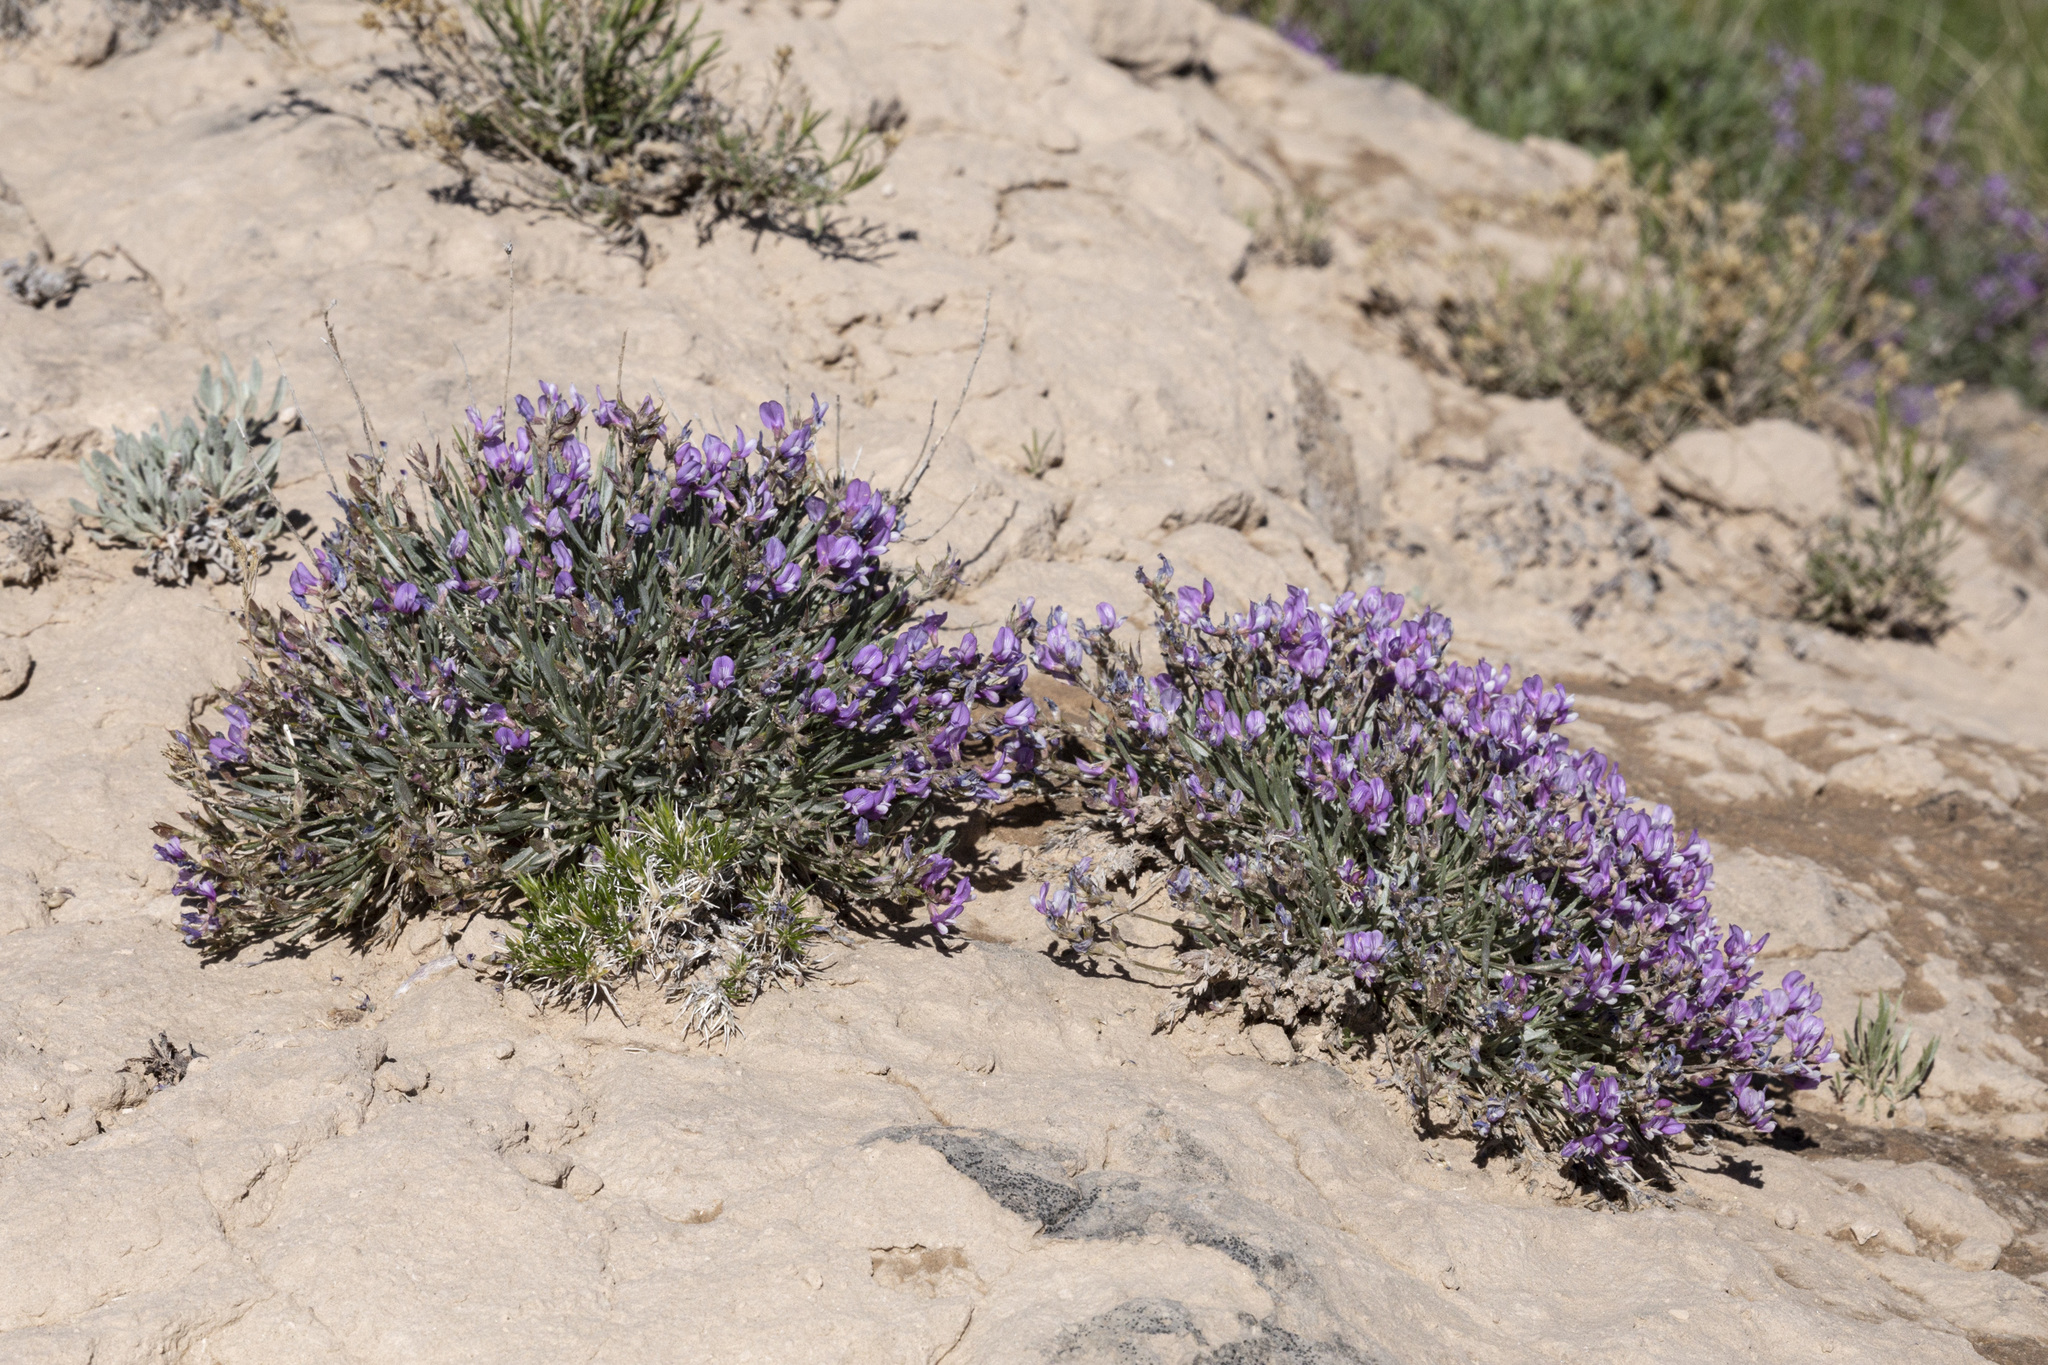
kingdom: Plantae
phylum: Tracheophyta
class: Magnoliopsida
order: Fabales
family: Fabaceae
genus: Astragalus
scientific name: Astragalus spatulatus
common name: Draba milk-vetch
